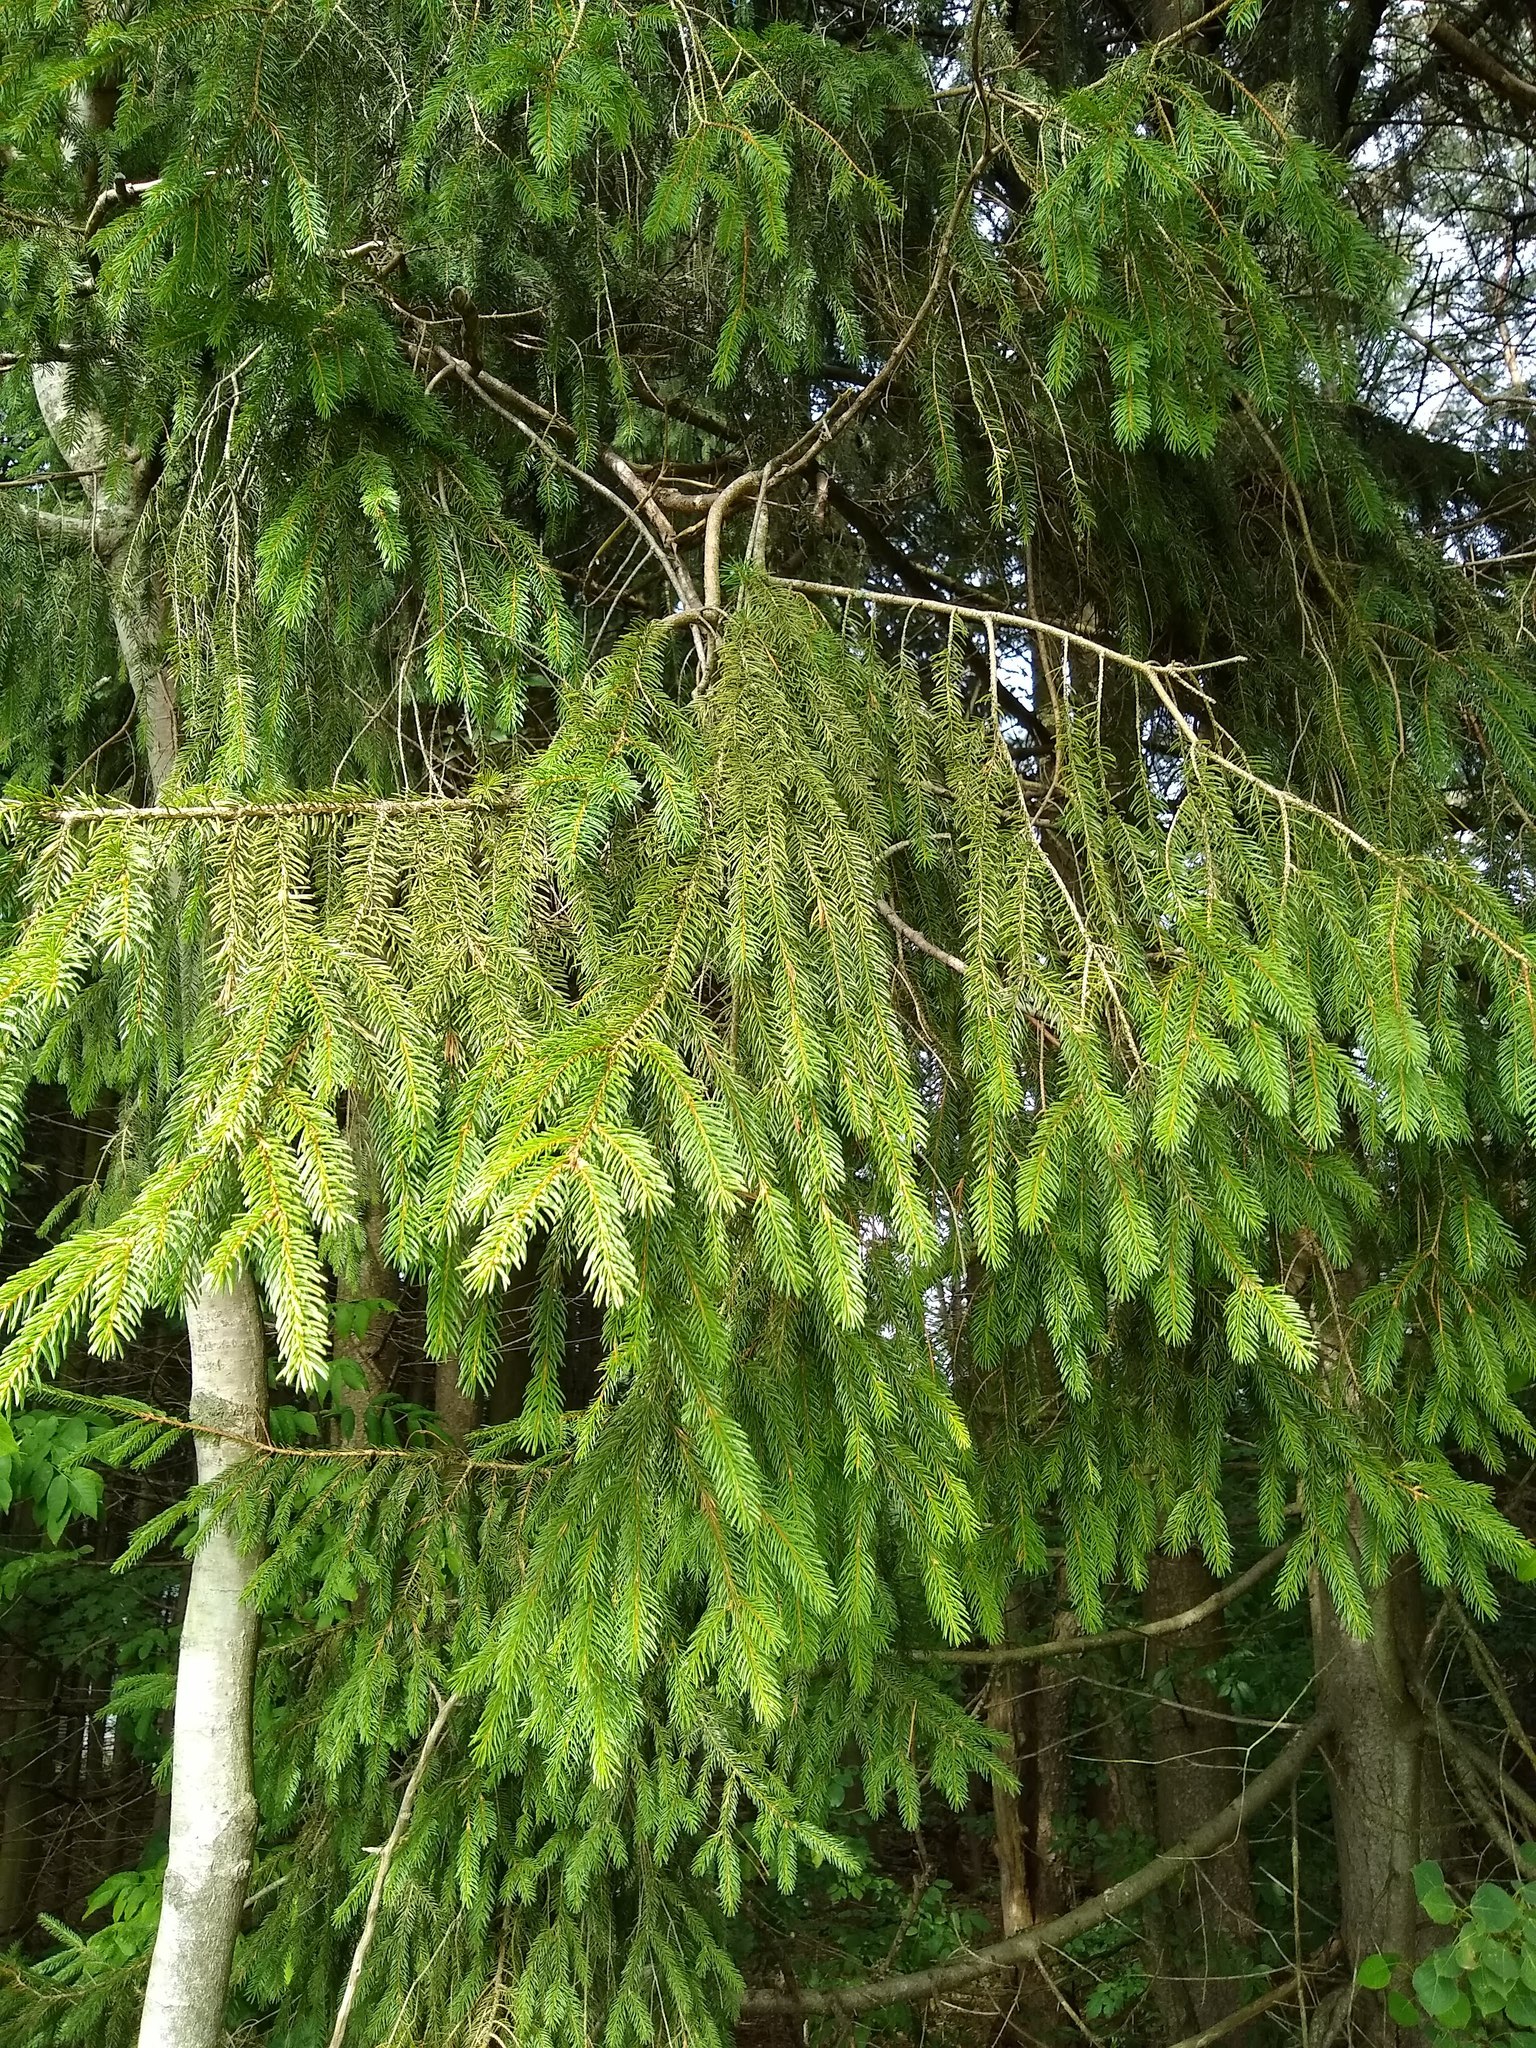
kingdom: Plantae
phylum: Tracheophyta
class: Pinopsida
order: Pinales
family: Pinaceae
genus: Picea
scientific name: Picea abies
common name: Norway spruce
